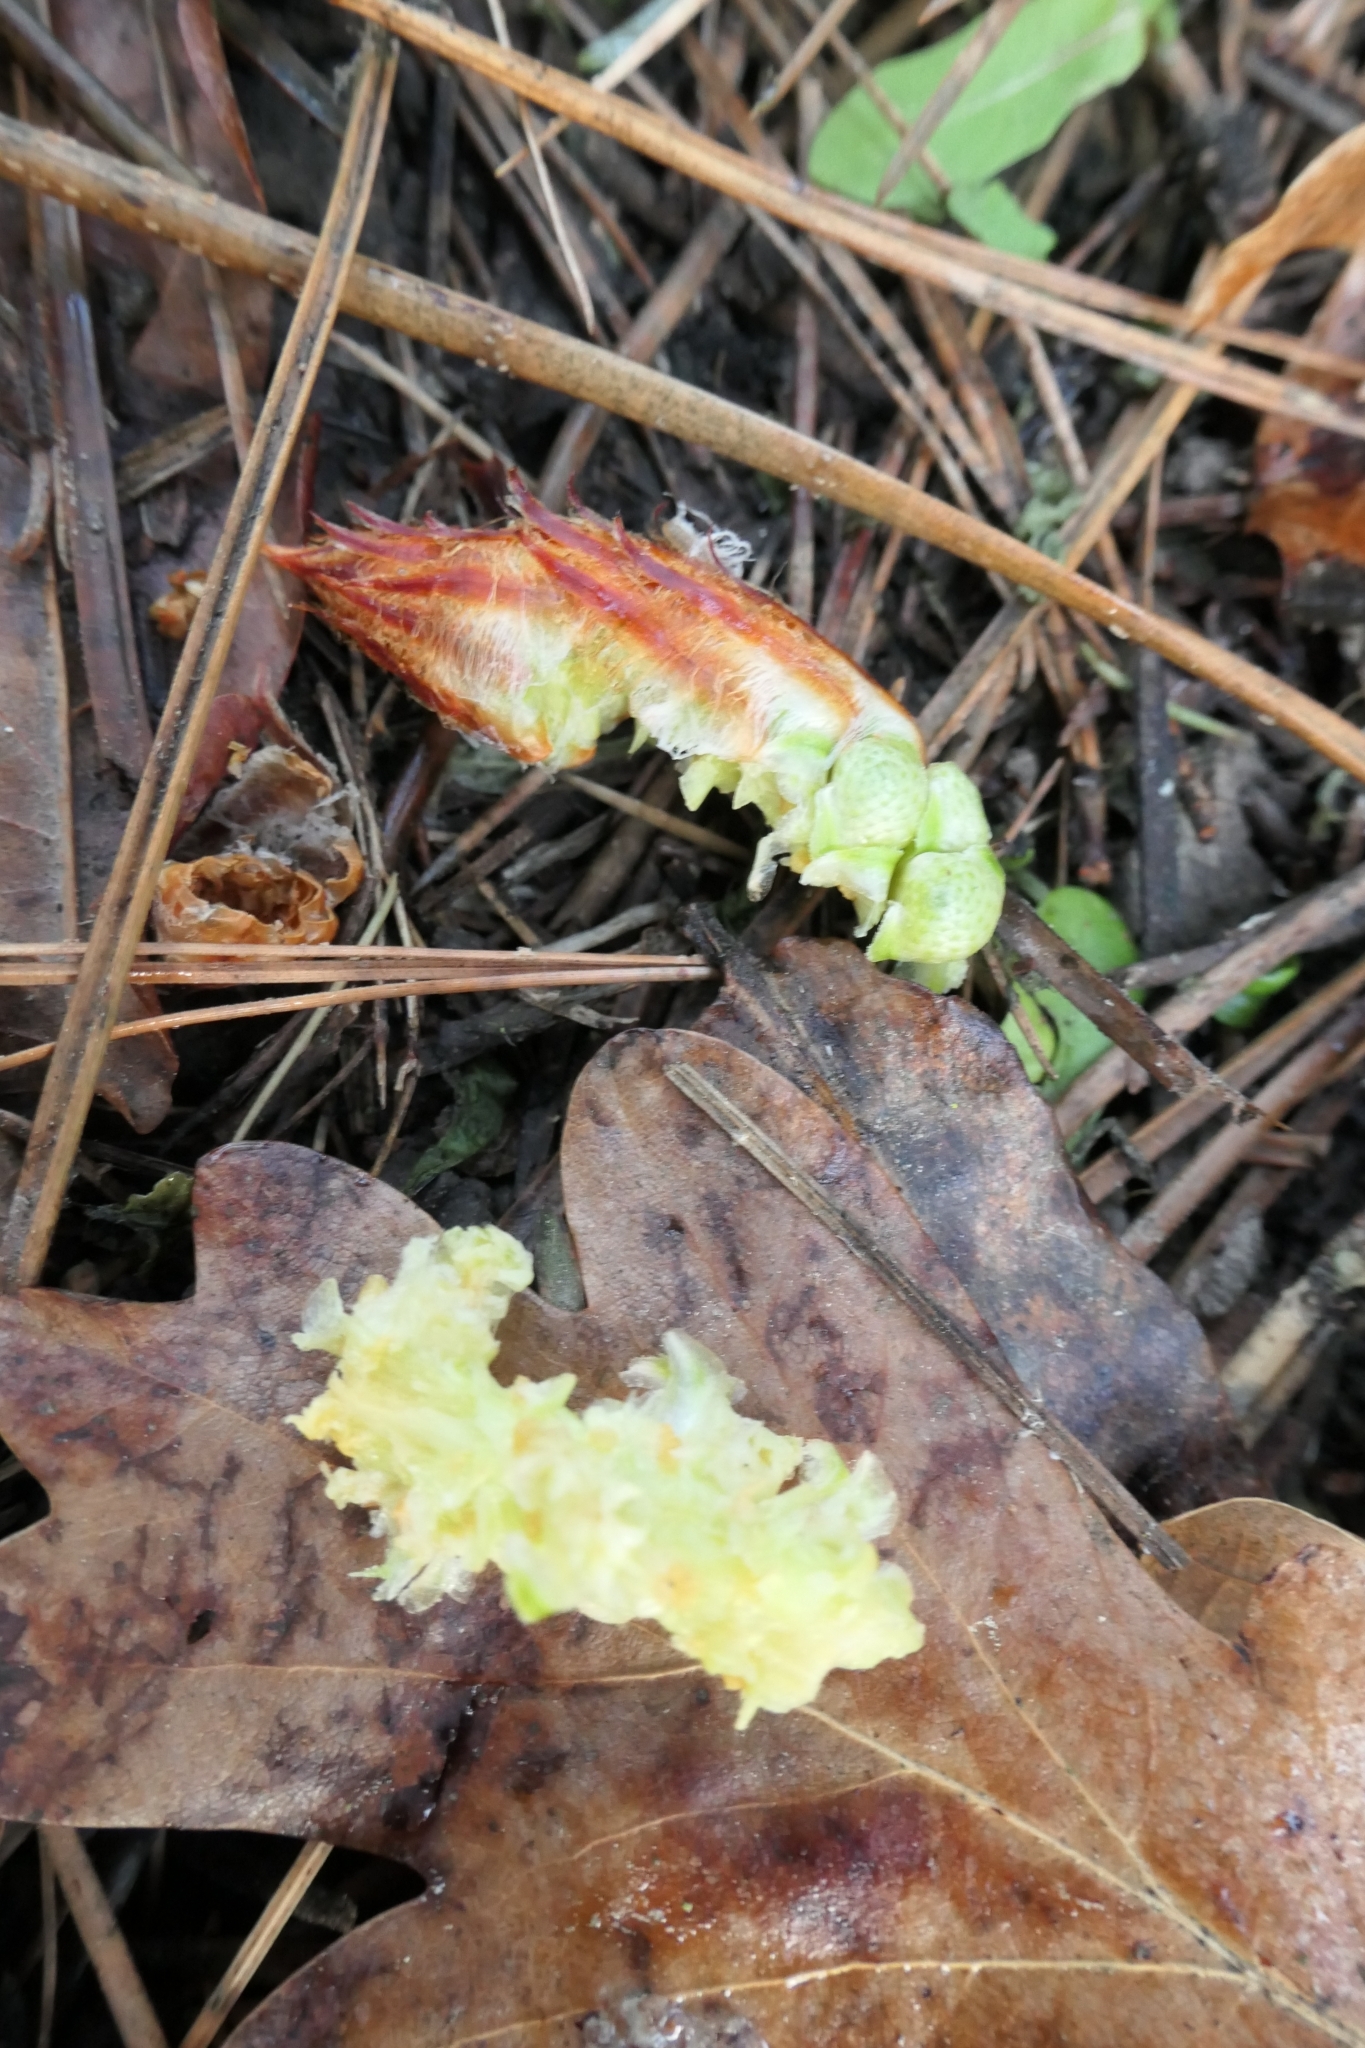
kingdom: Animalia
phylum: Chordata
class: Mammalia
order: Diprotodontia
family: Phalangeridae
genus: Trichosurus
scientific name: Trichosurus vulpecula
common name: Common brushtail
